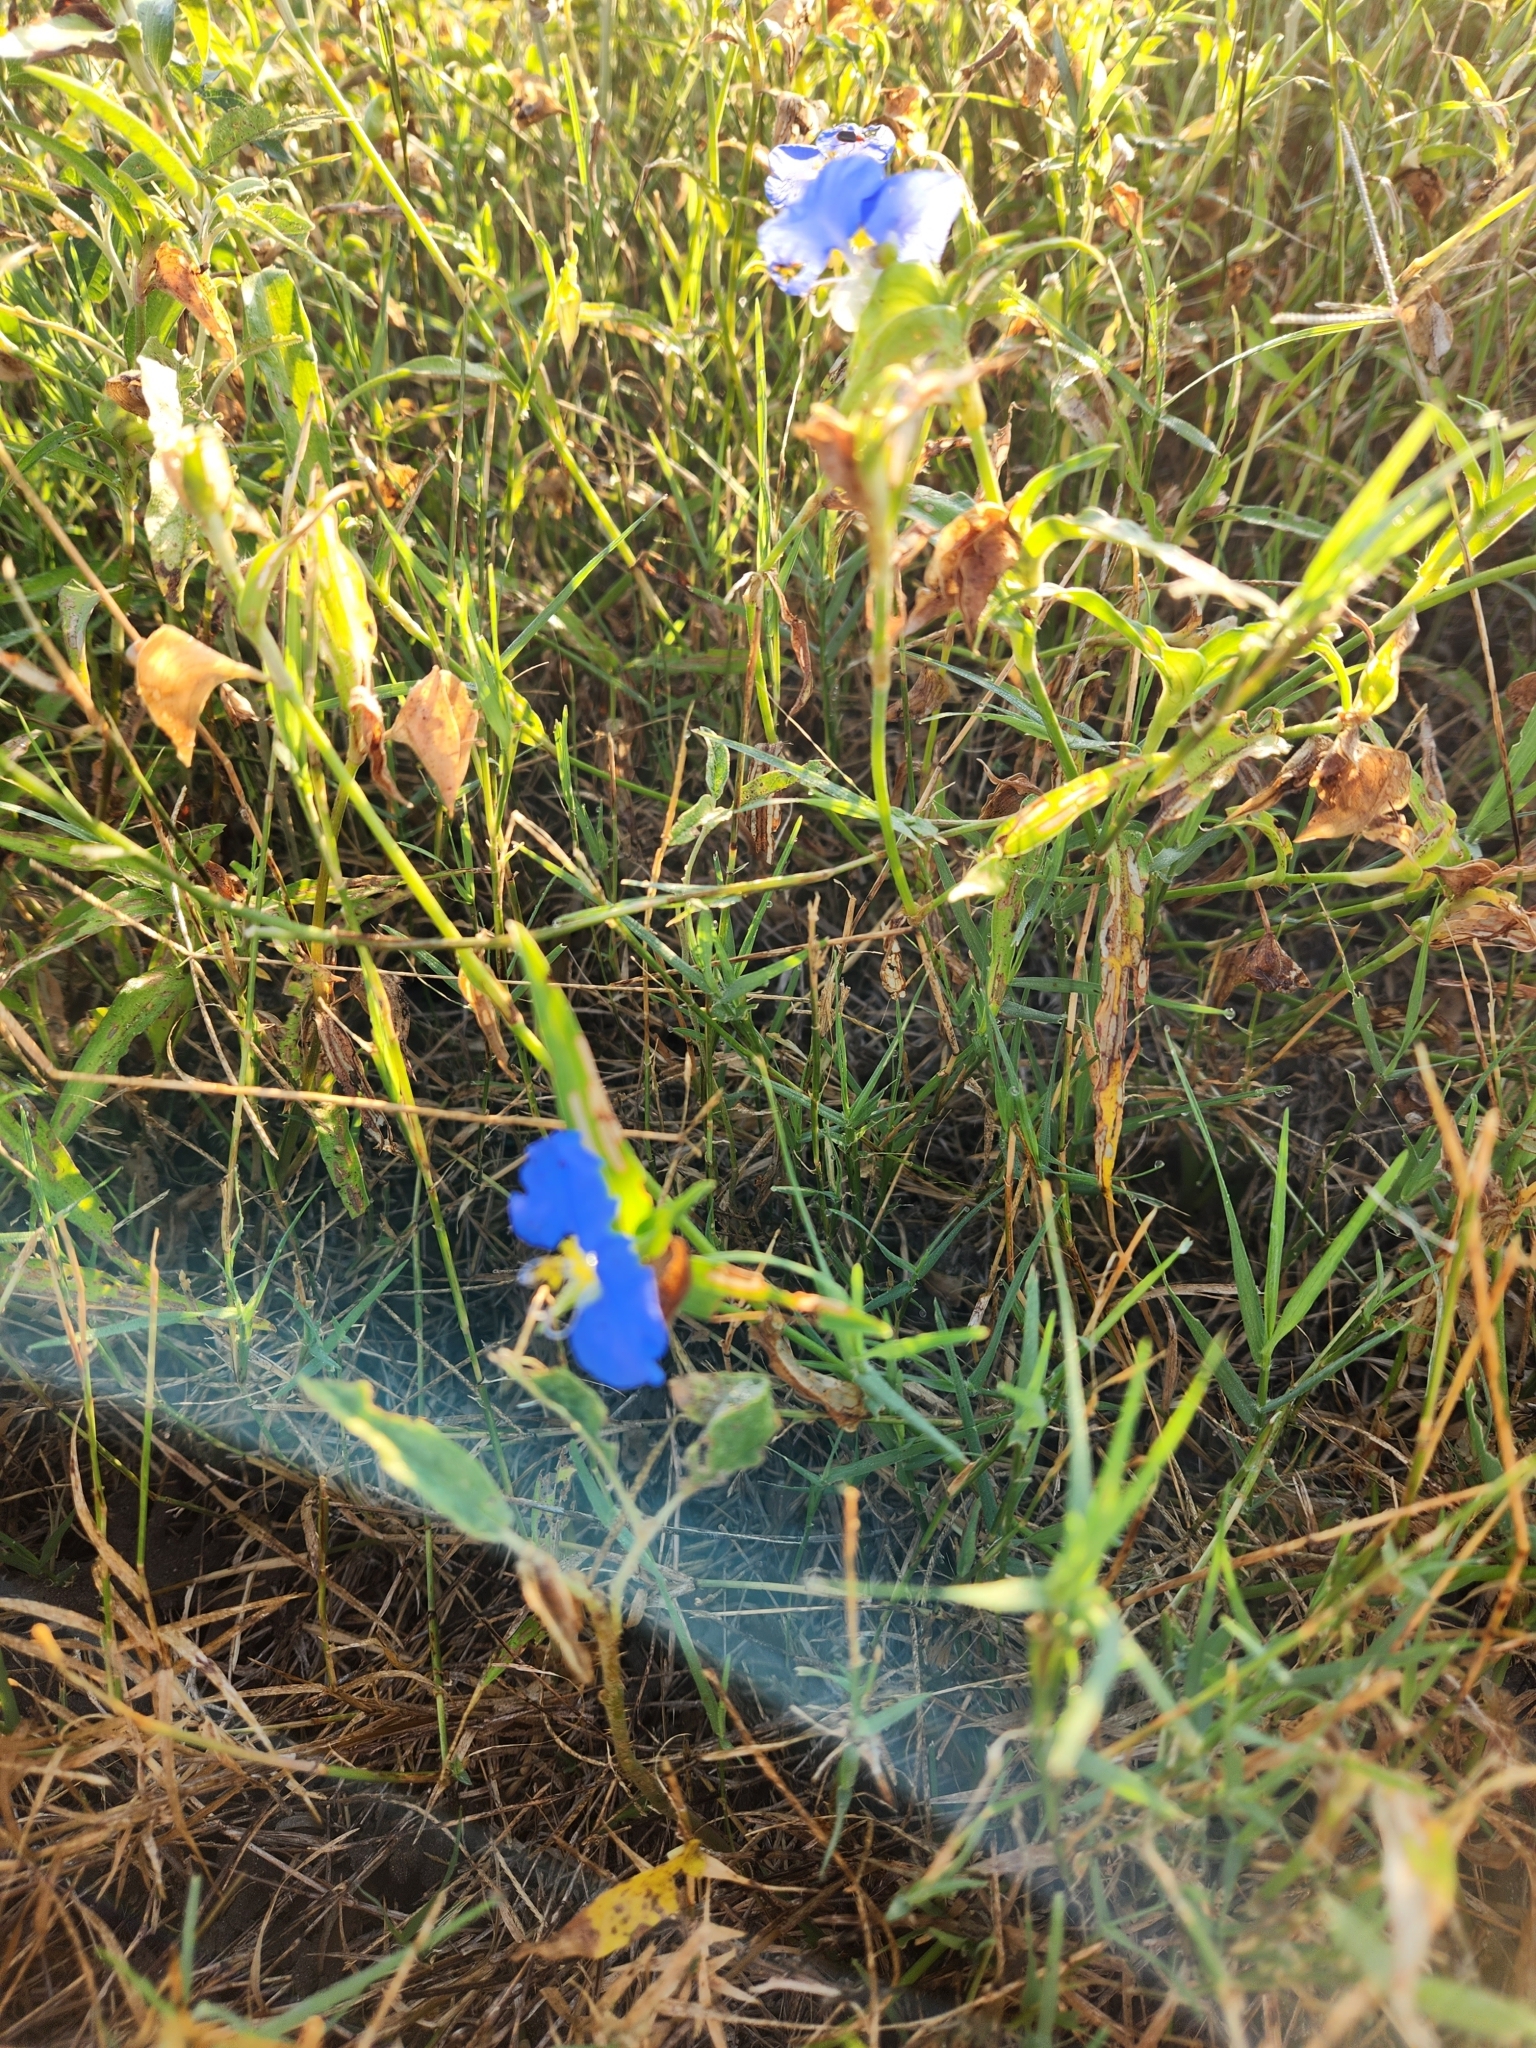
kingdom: Plantae
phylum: Tracheophyta
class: Liliopsida
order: Commelinales
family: Commelinaceae
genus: Commelina
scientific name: Commelina erecta
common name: Blousel blommetjie
